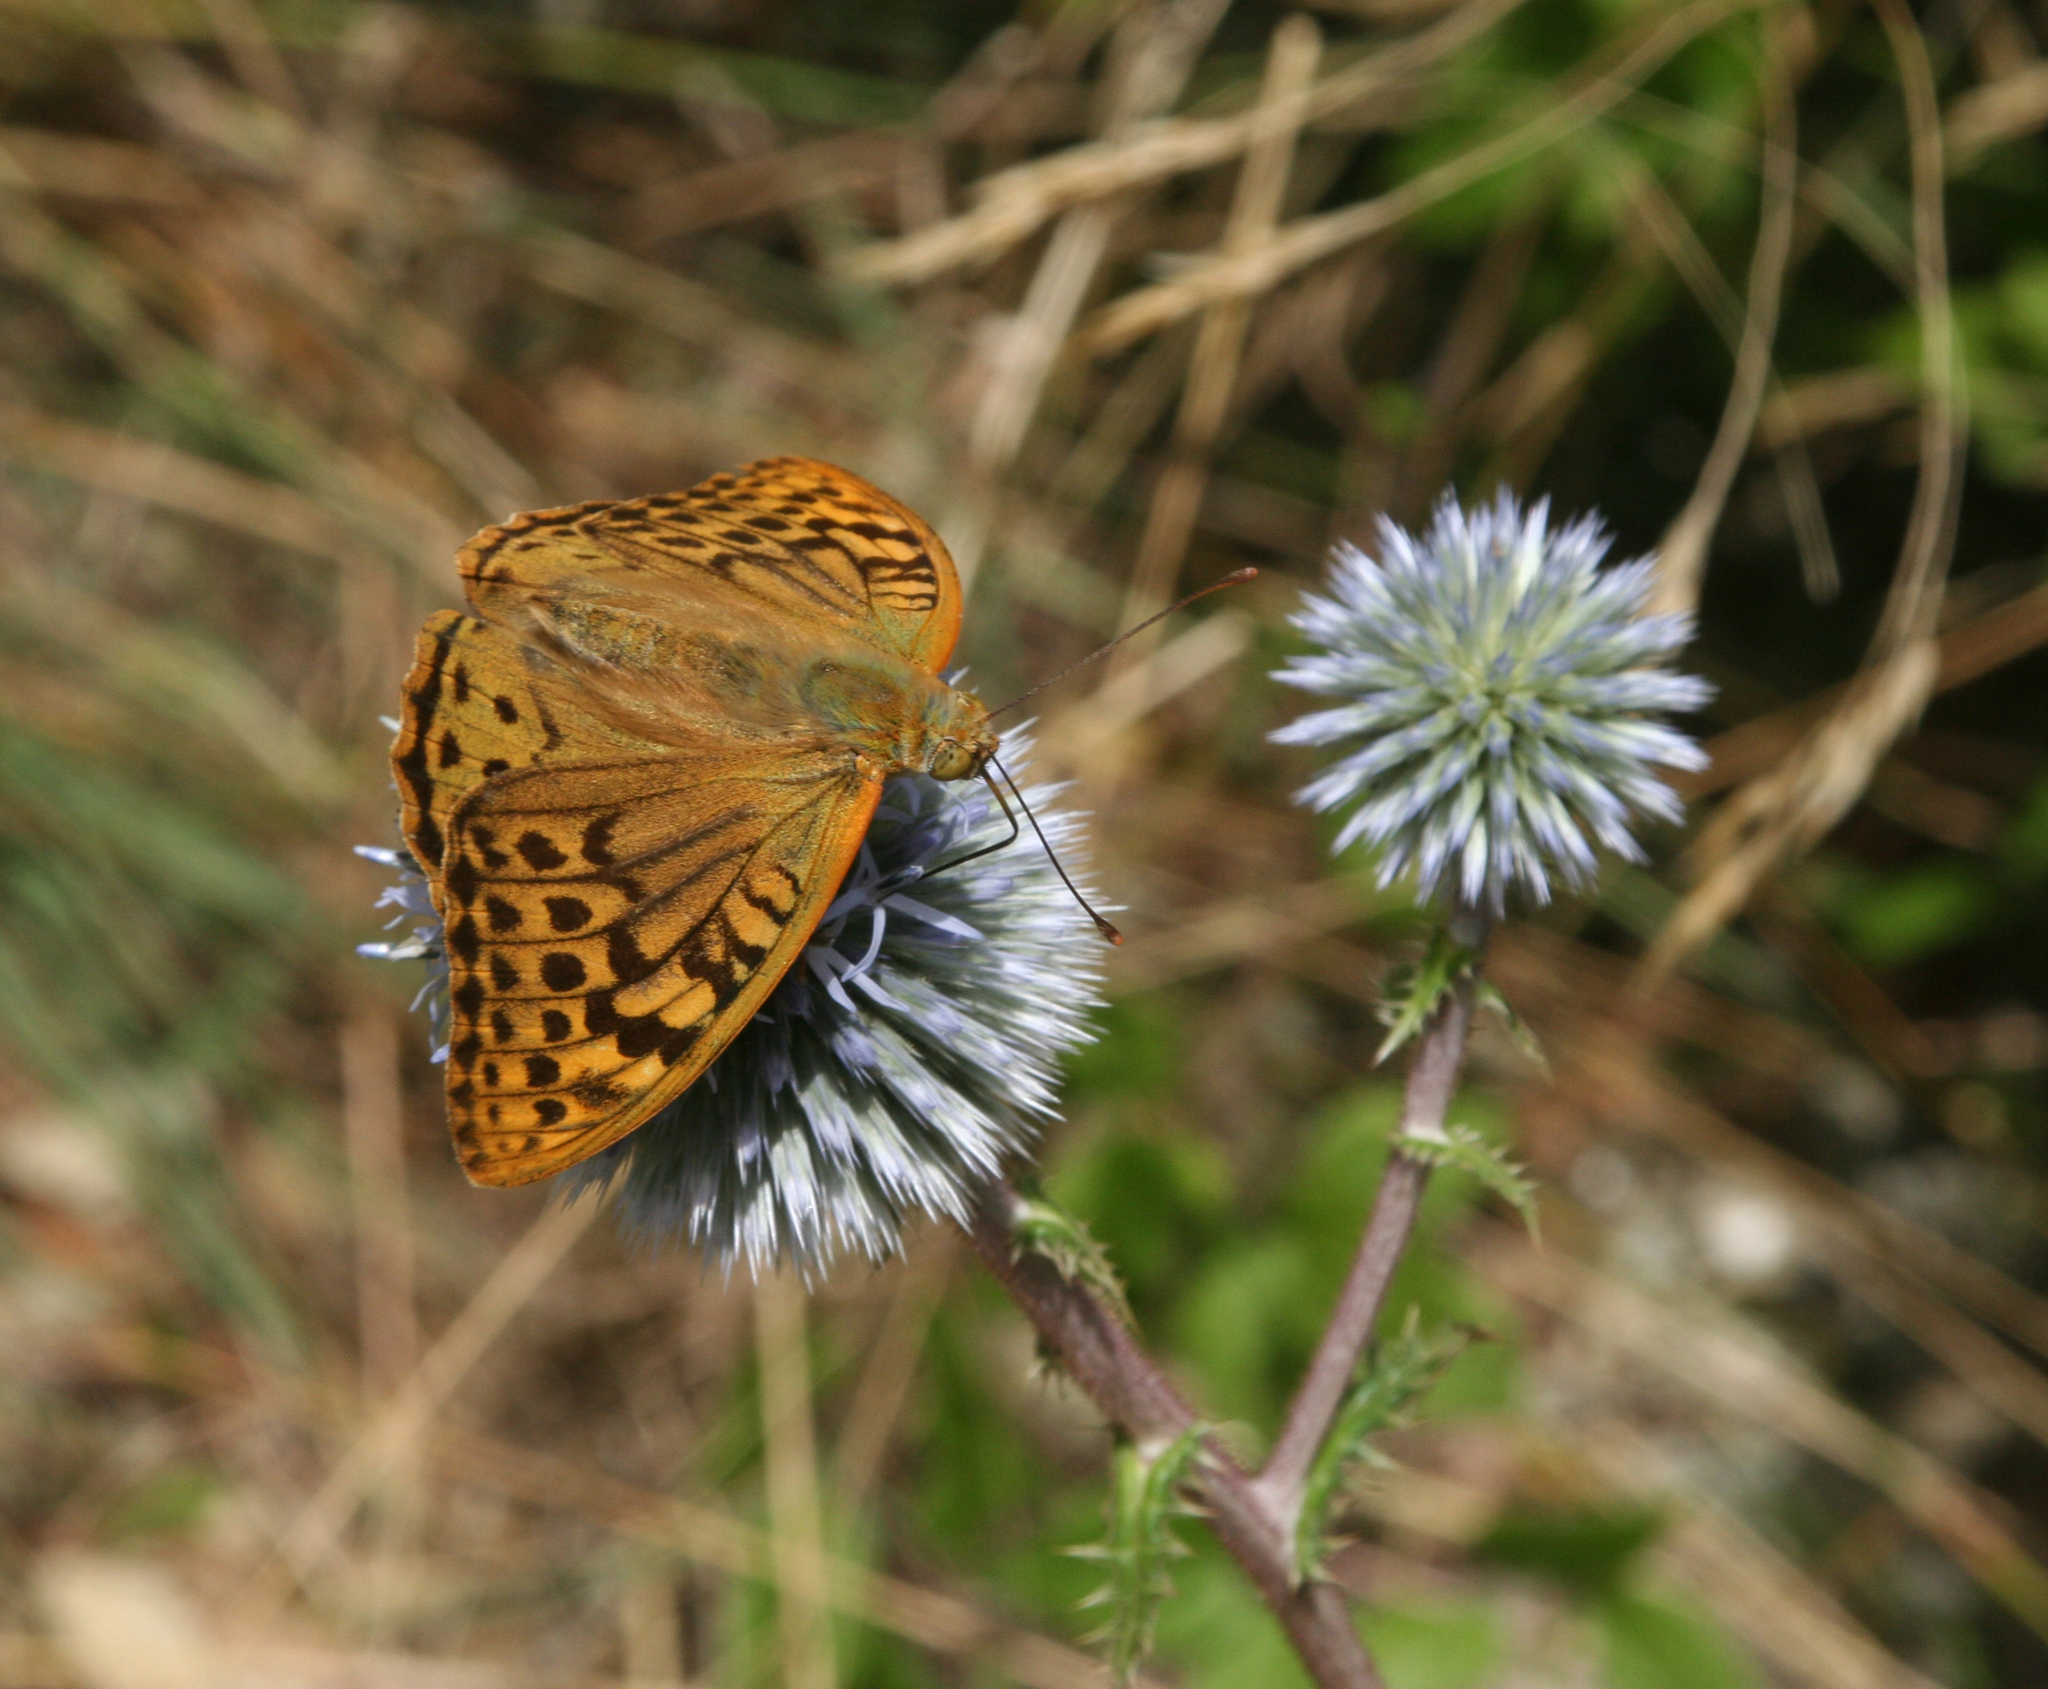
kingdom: Animalia
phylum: Arthropoda
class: Insecta
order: Lepidoptera
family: Nymphalidae
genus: Damora
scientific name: Damora pandora
